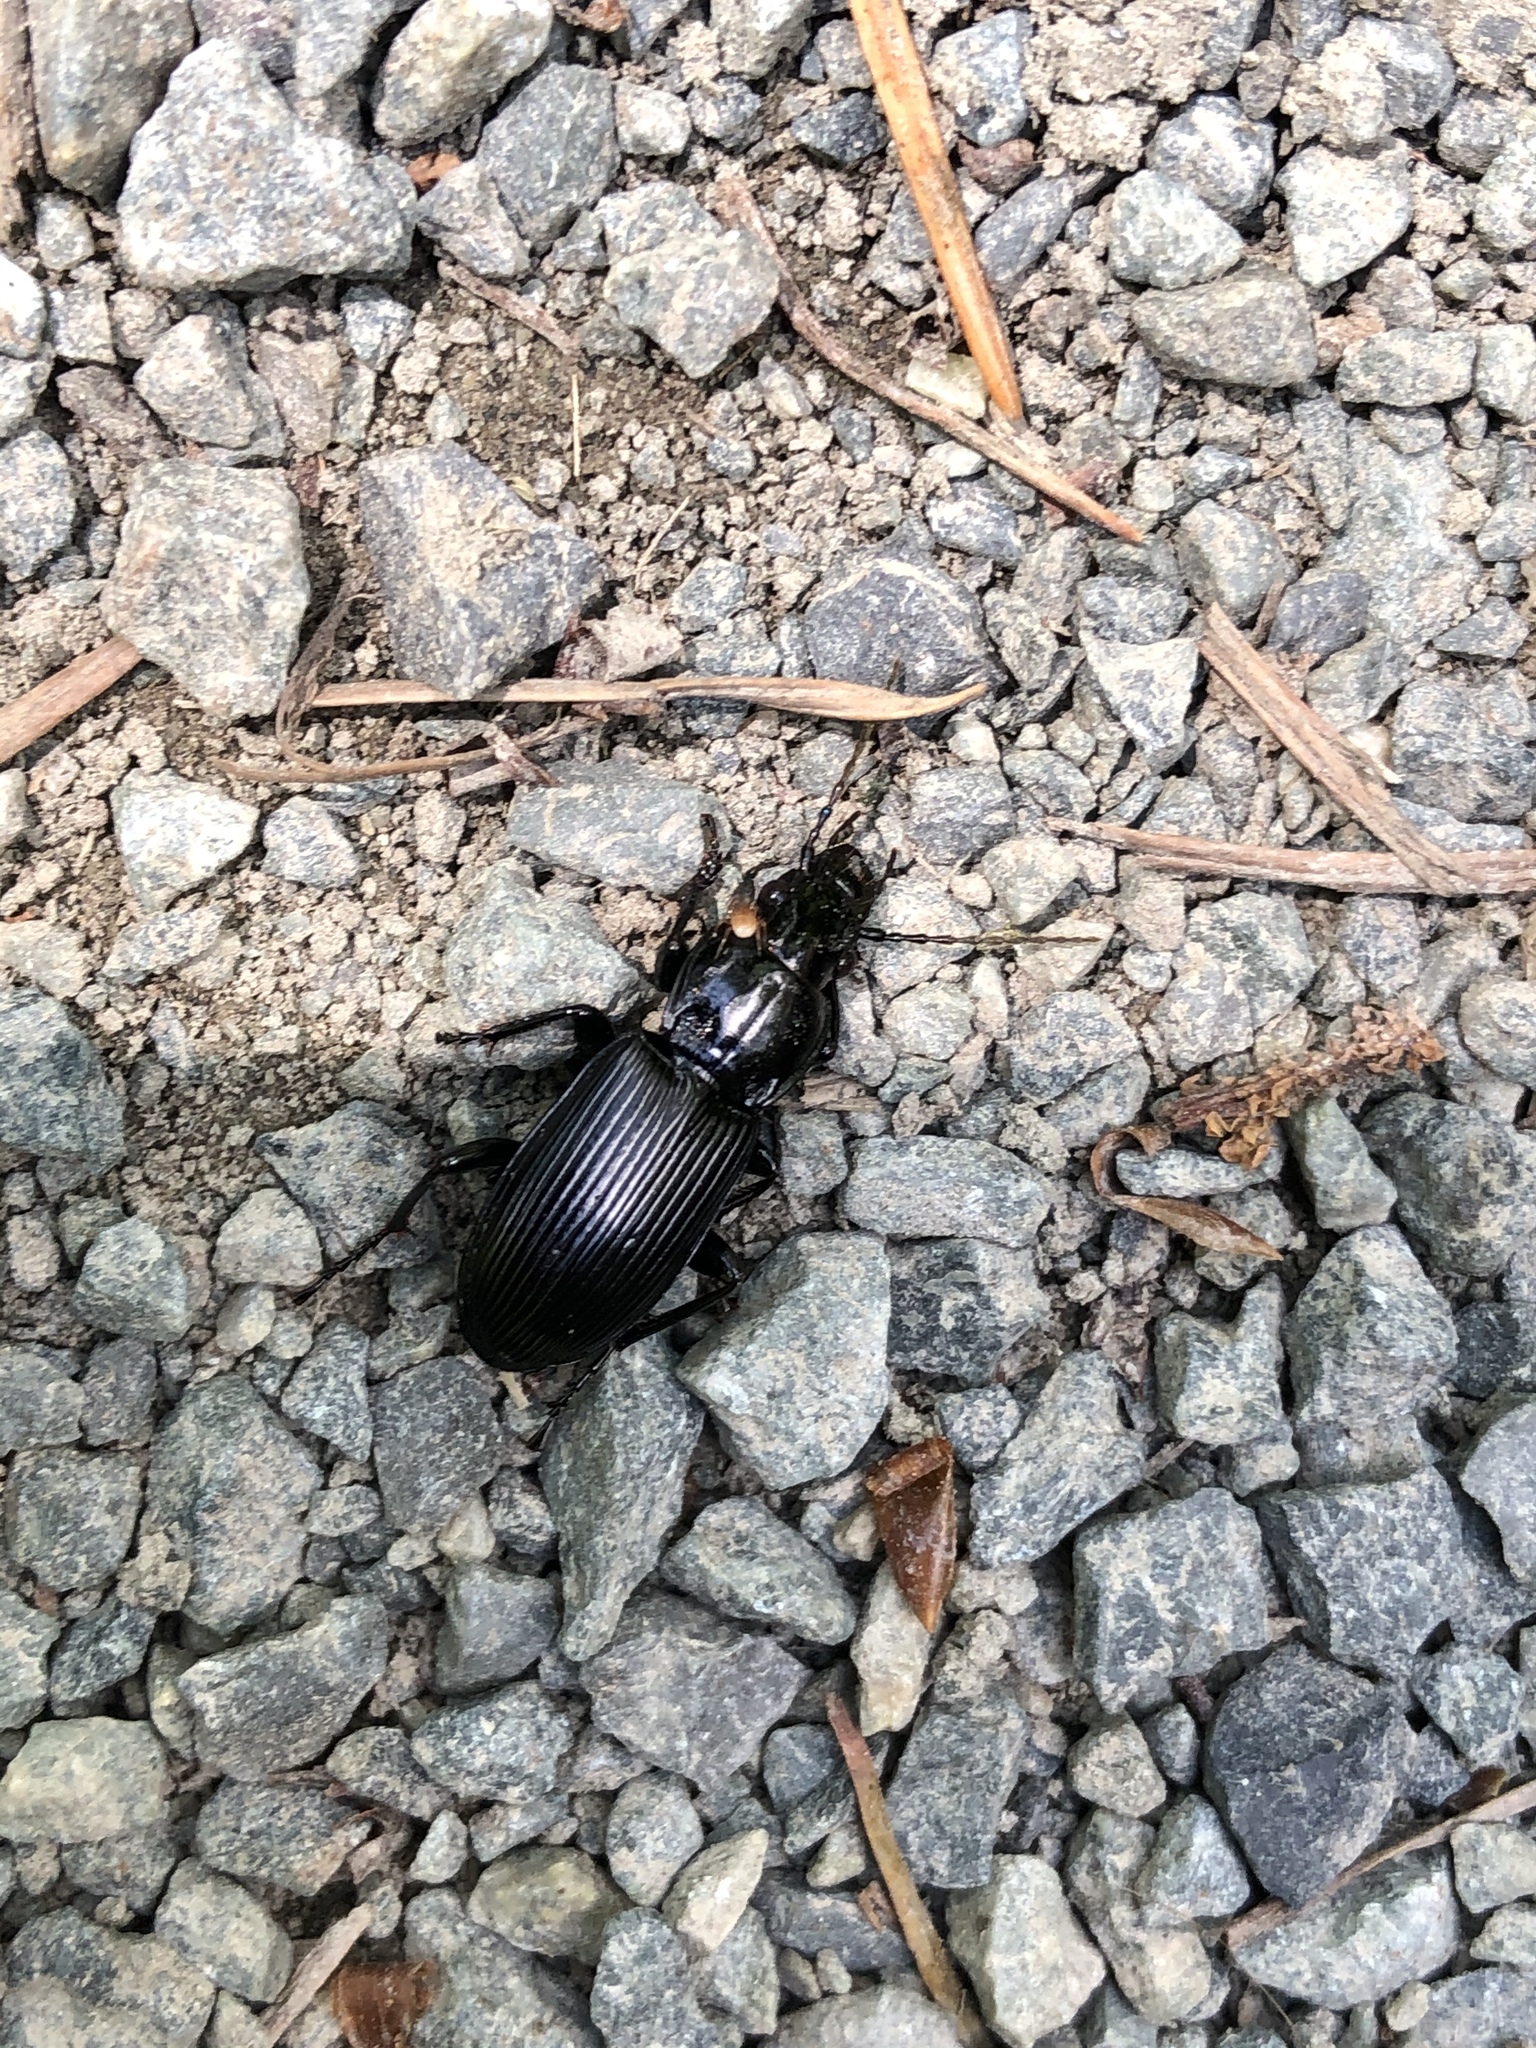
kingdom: Animalia
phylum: Arthropoda
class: Insecta
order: Coleoptera
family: Carabidae
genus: Pterostichus
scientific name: Pterostichus melanarius
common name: European dark harp ground beetle
